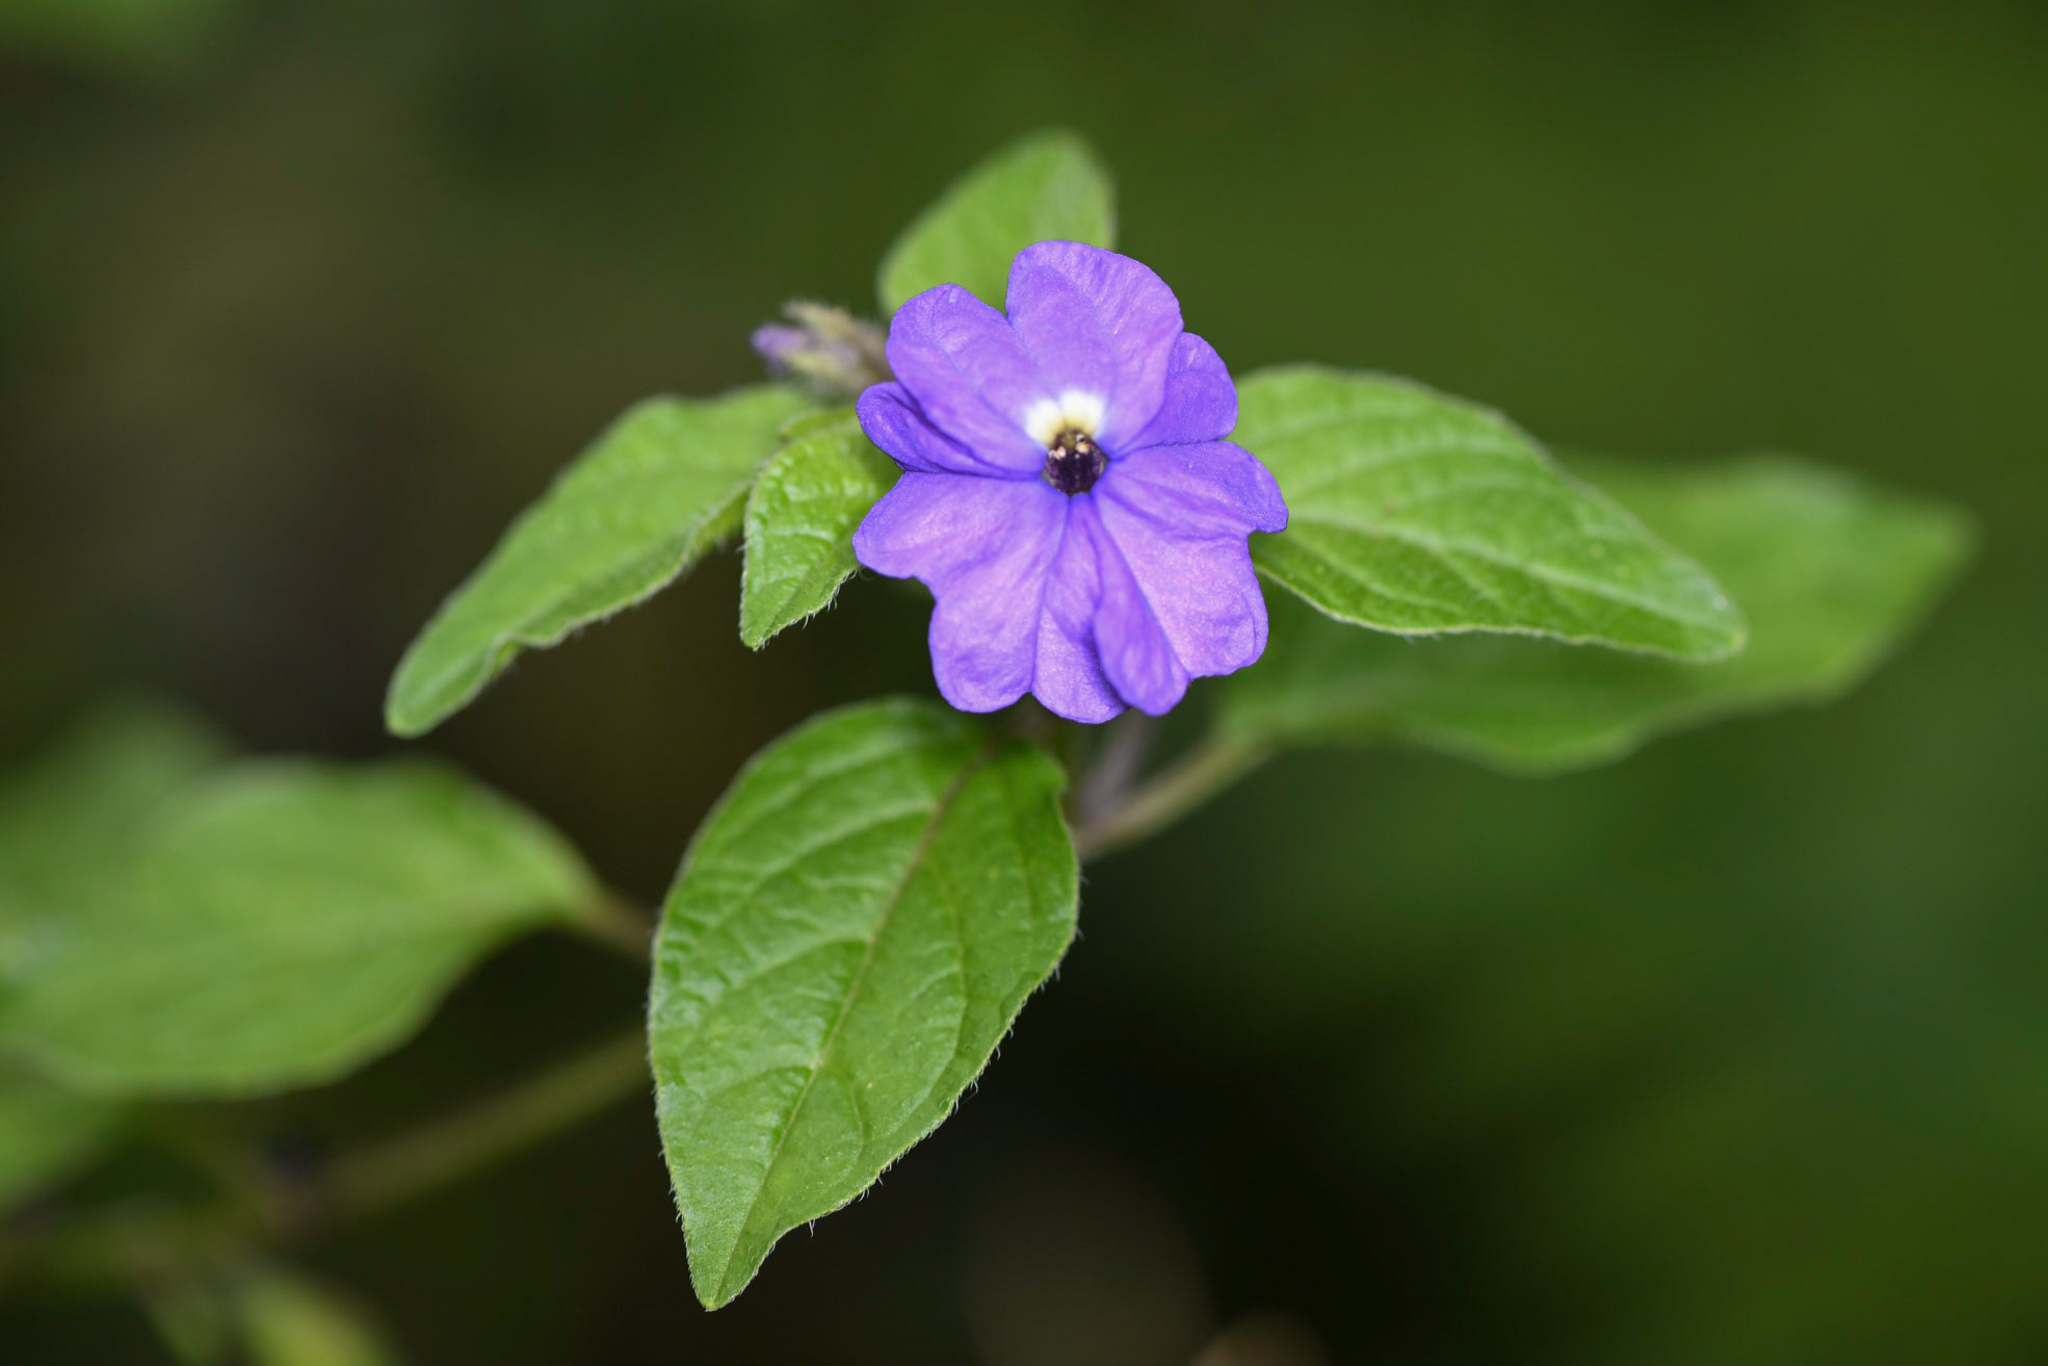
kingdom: Plantae
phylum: Tracheophyta
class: Magnoliopsida
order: Solanales
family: Solanaceae
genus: Browallia
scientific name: Browallia americana
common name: Jamaican forget-me-not
